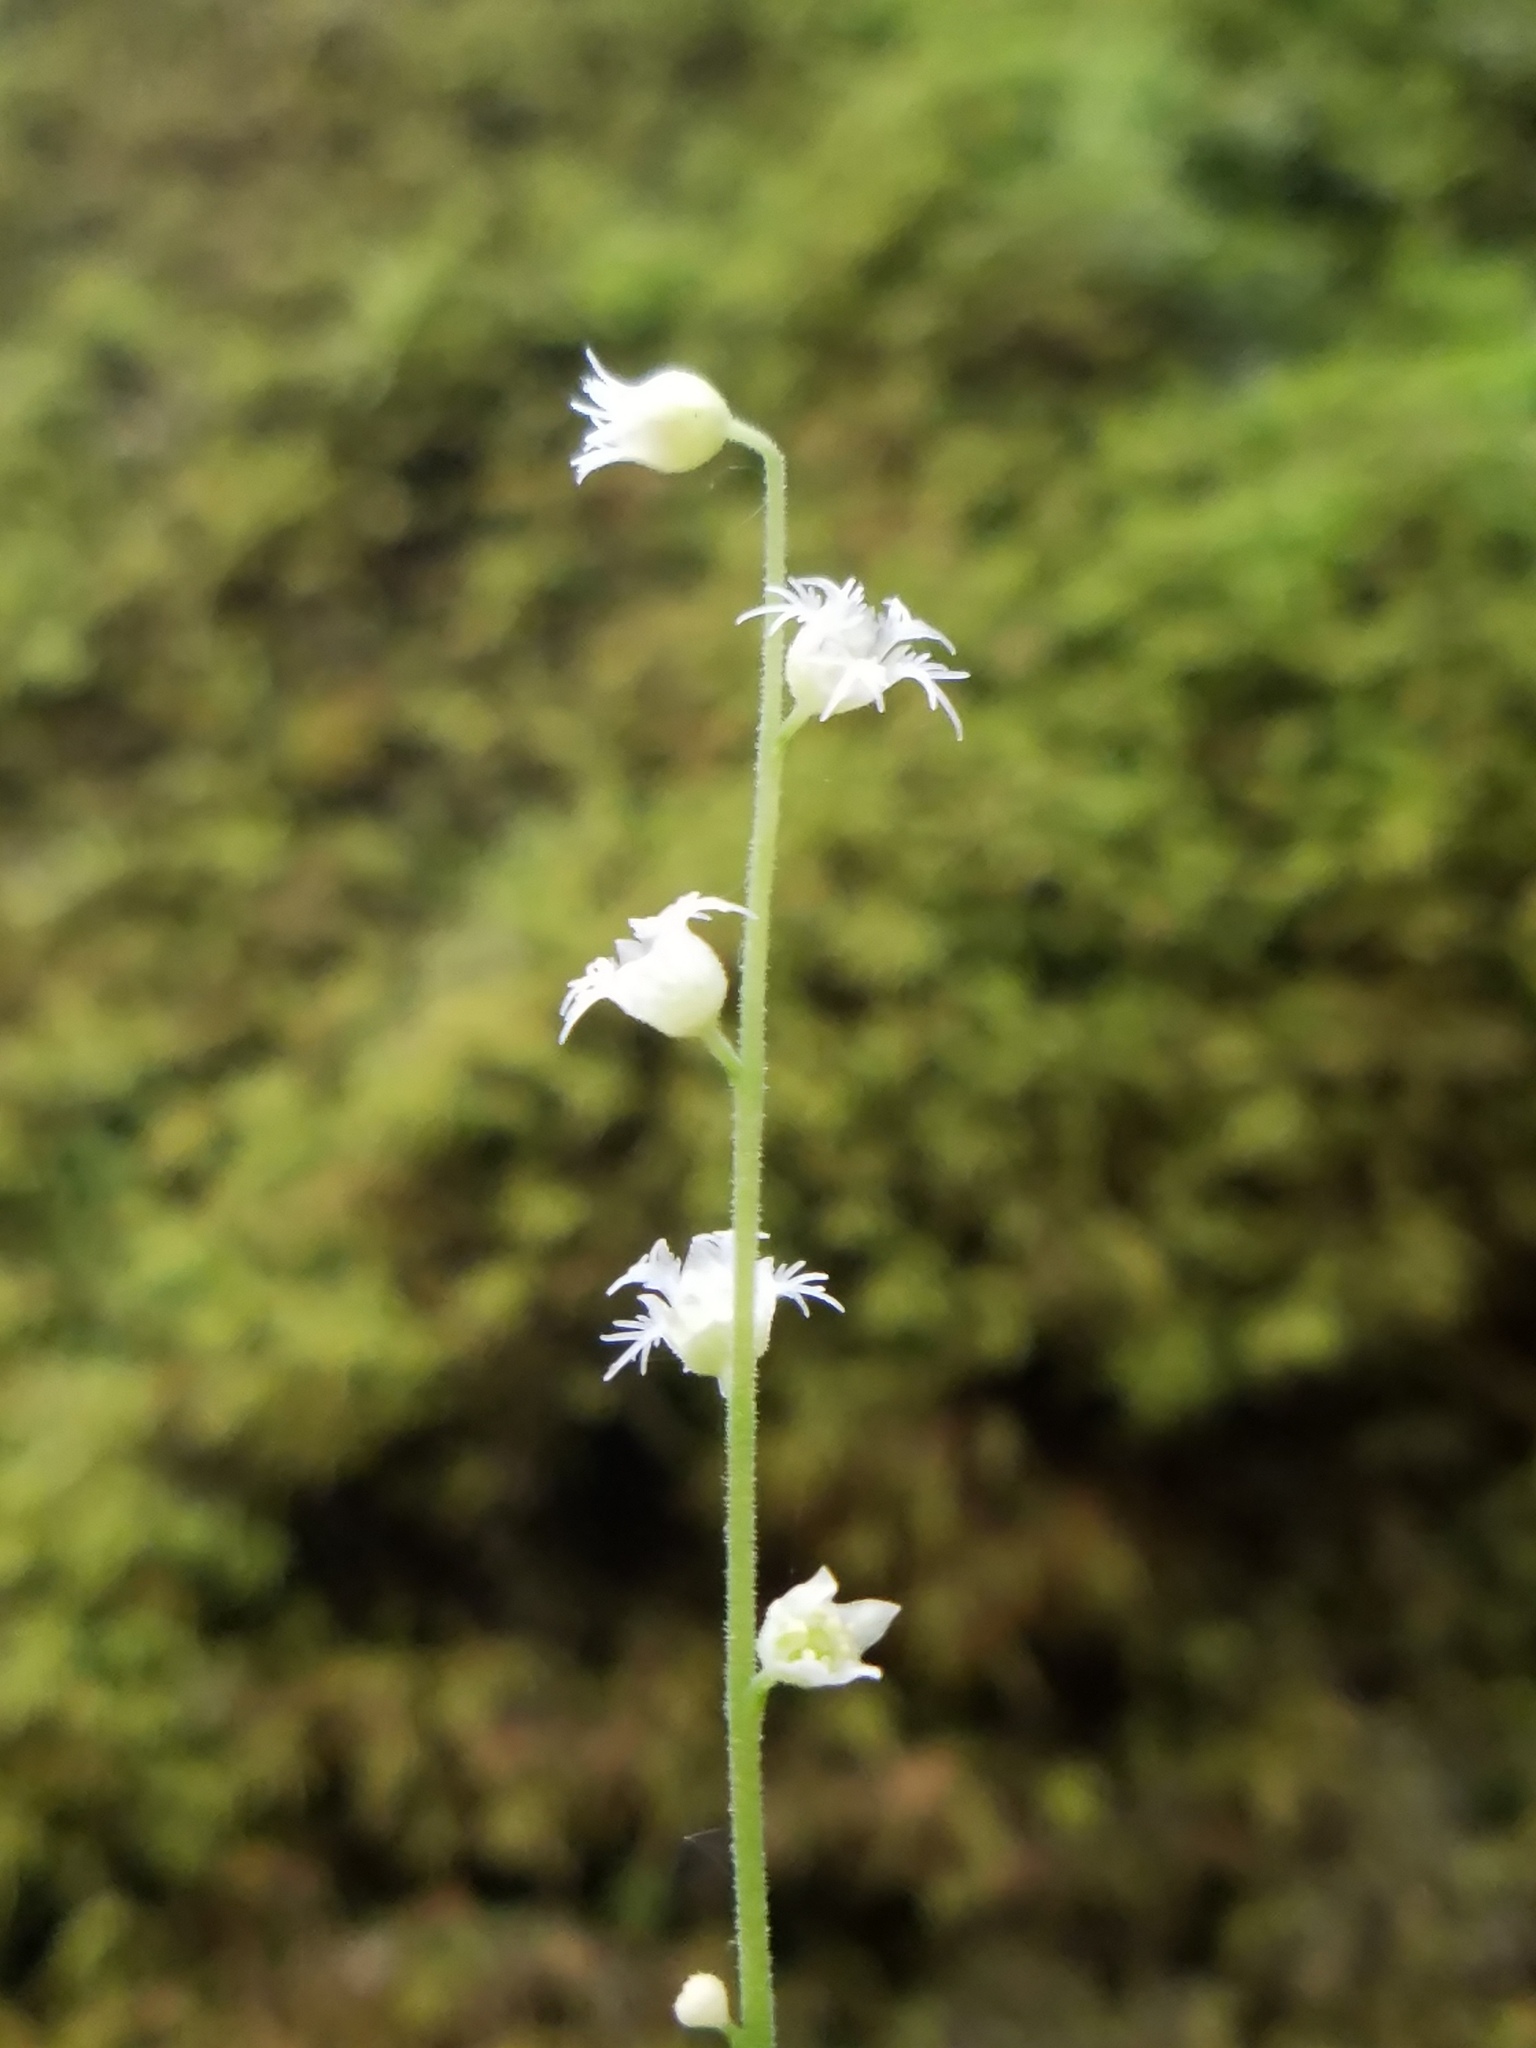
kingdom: Plantae
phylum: Tracheophyta
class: Magnoliopsida
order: Saxifragales
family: Saxifragaceae
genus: Mitella
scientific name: Mitella diphylla
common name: Coolwort
